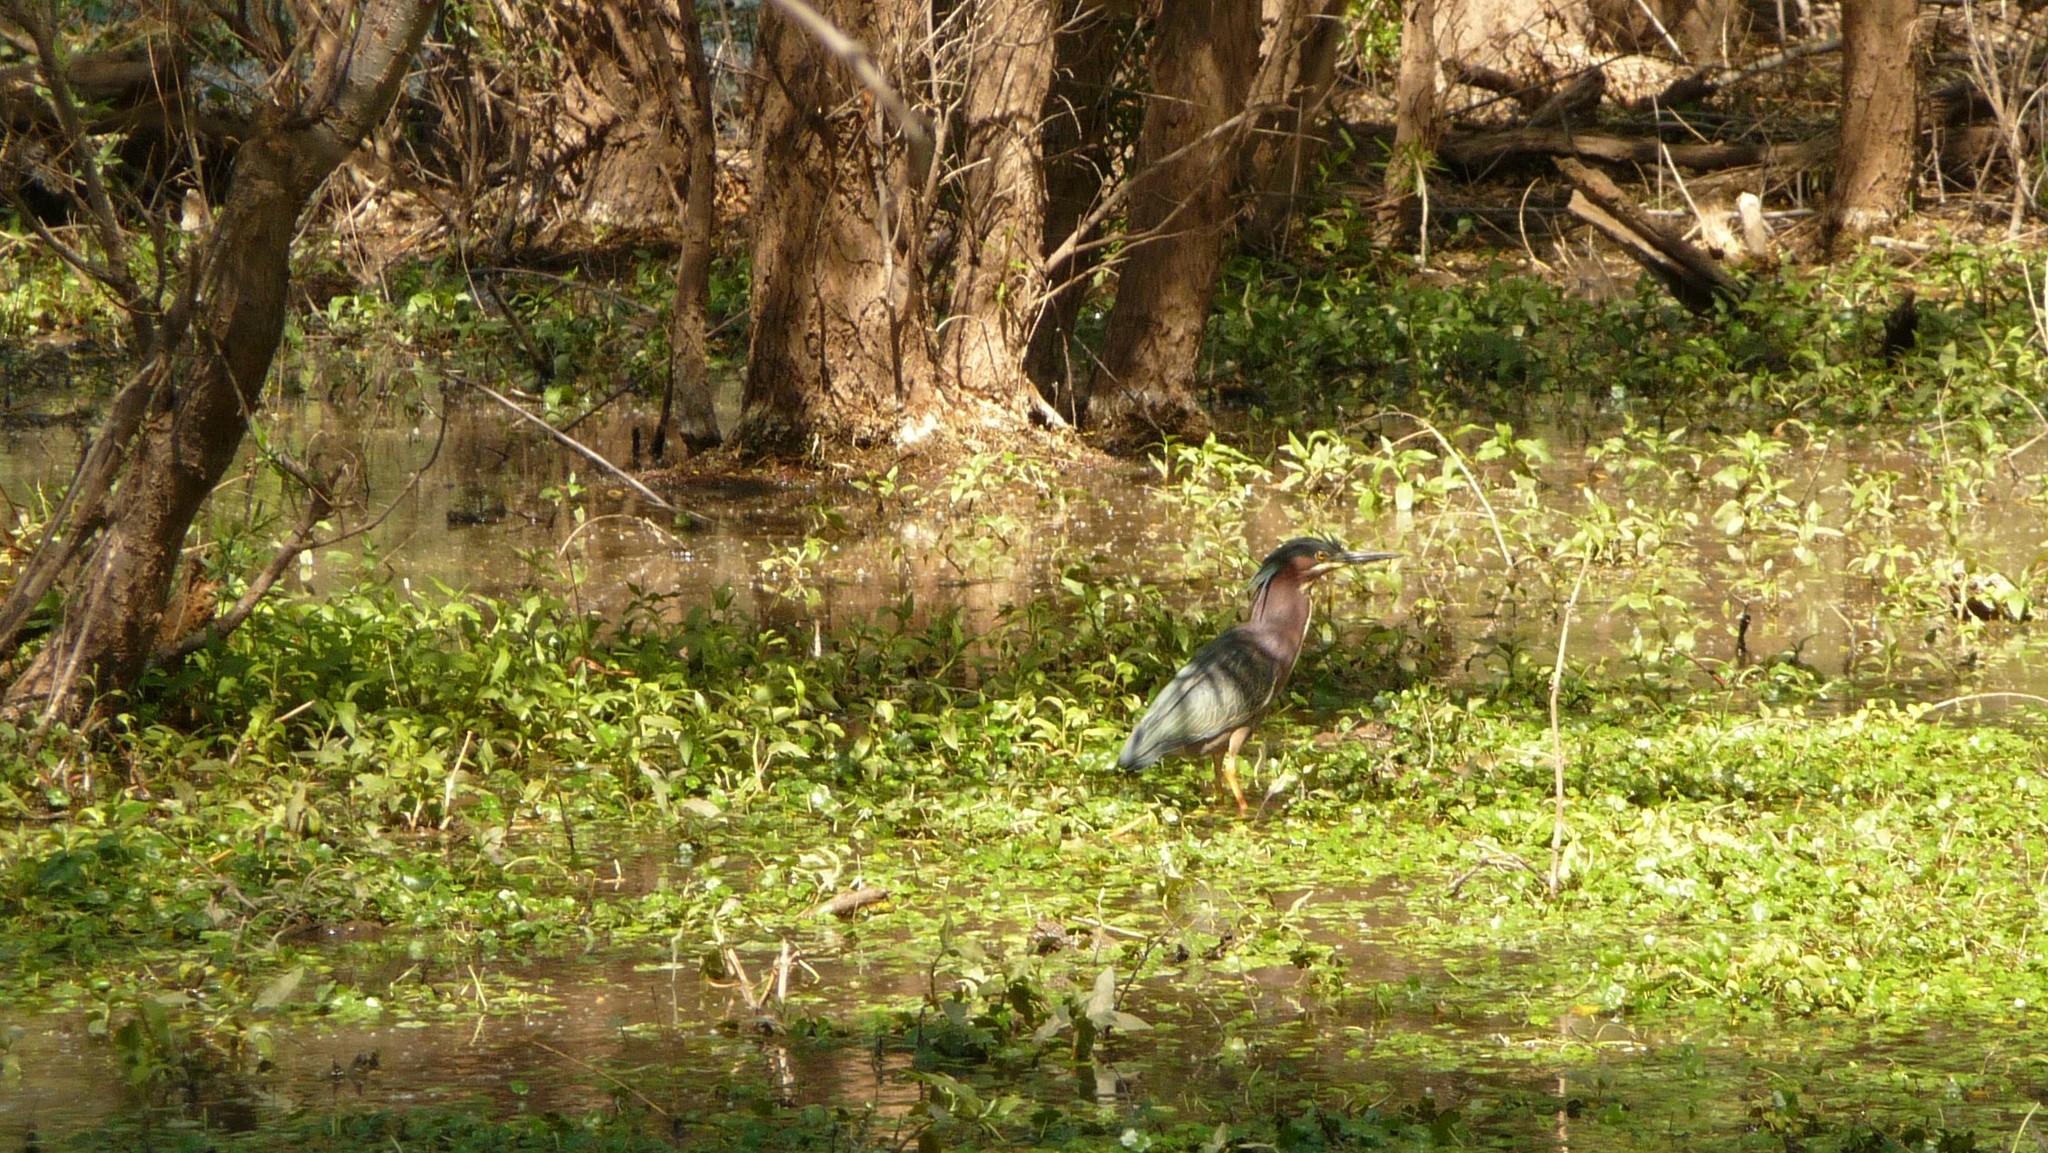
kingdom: Animalia
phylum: Chordata
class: Aves
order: Pelecaniformes
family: Ardeidae
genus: Butorides
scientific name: Butorides virescens
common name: Green heron
